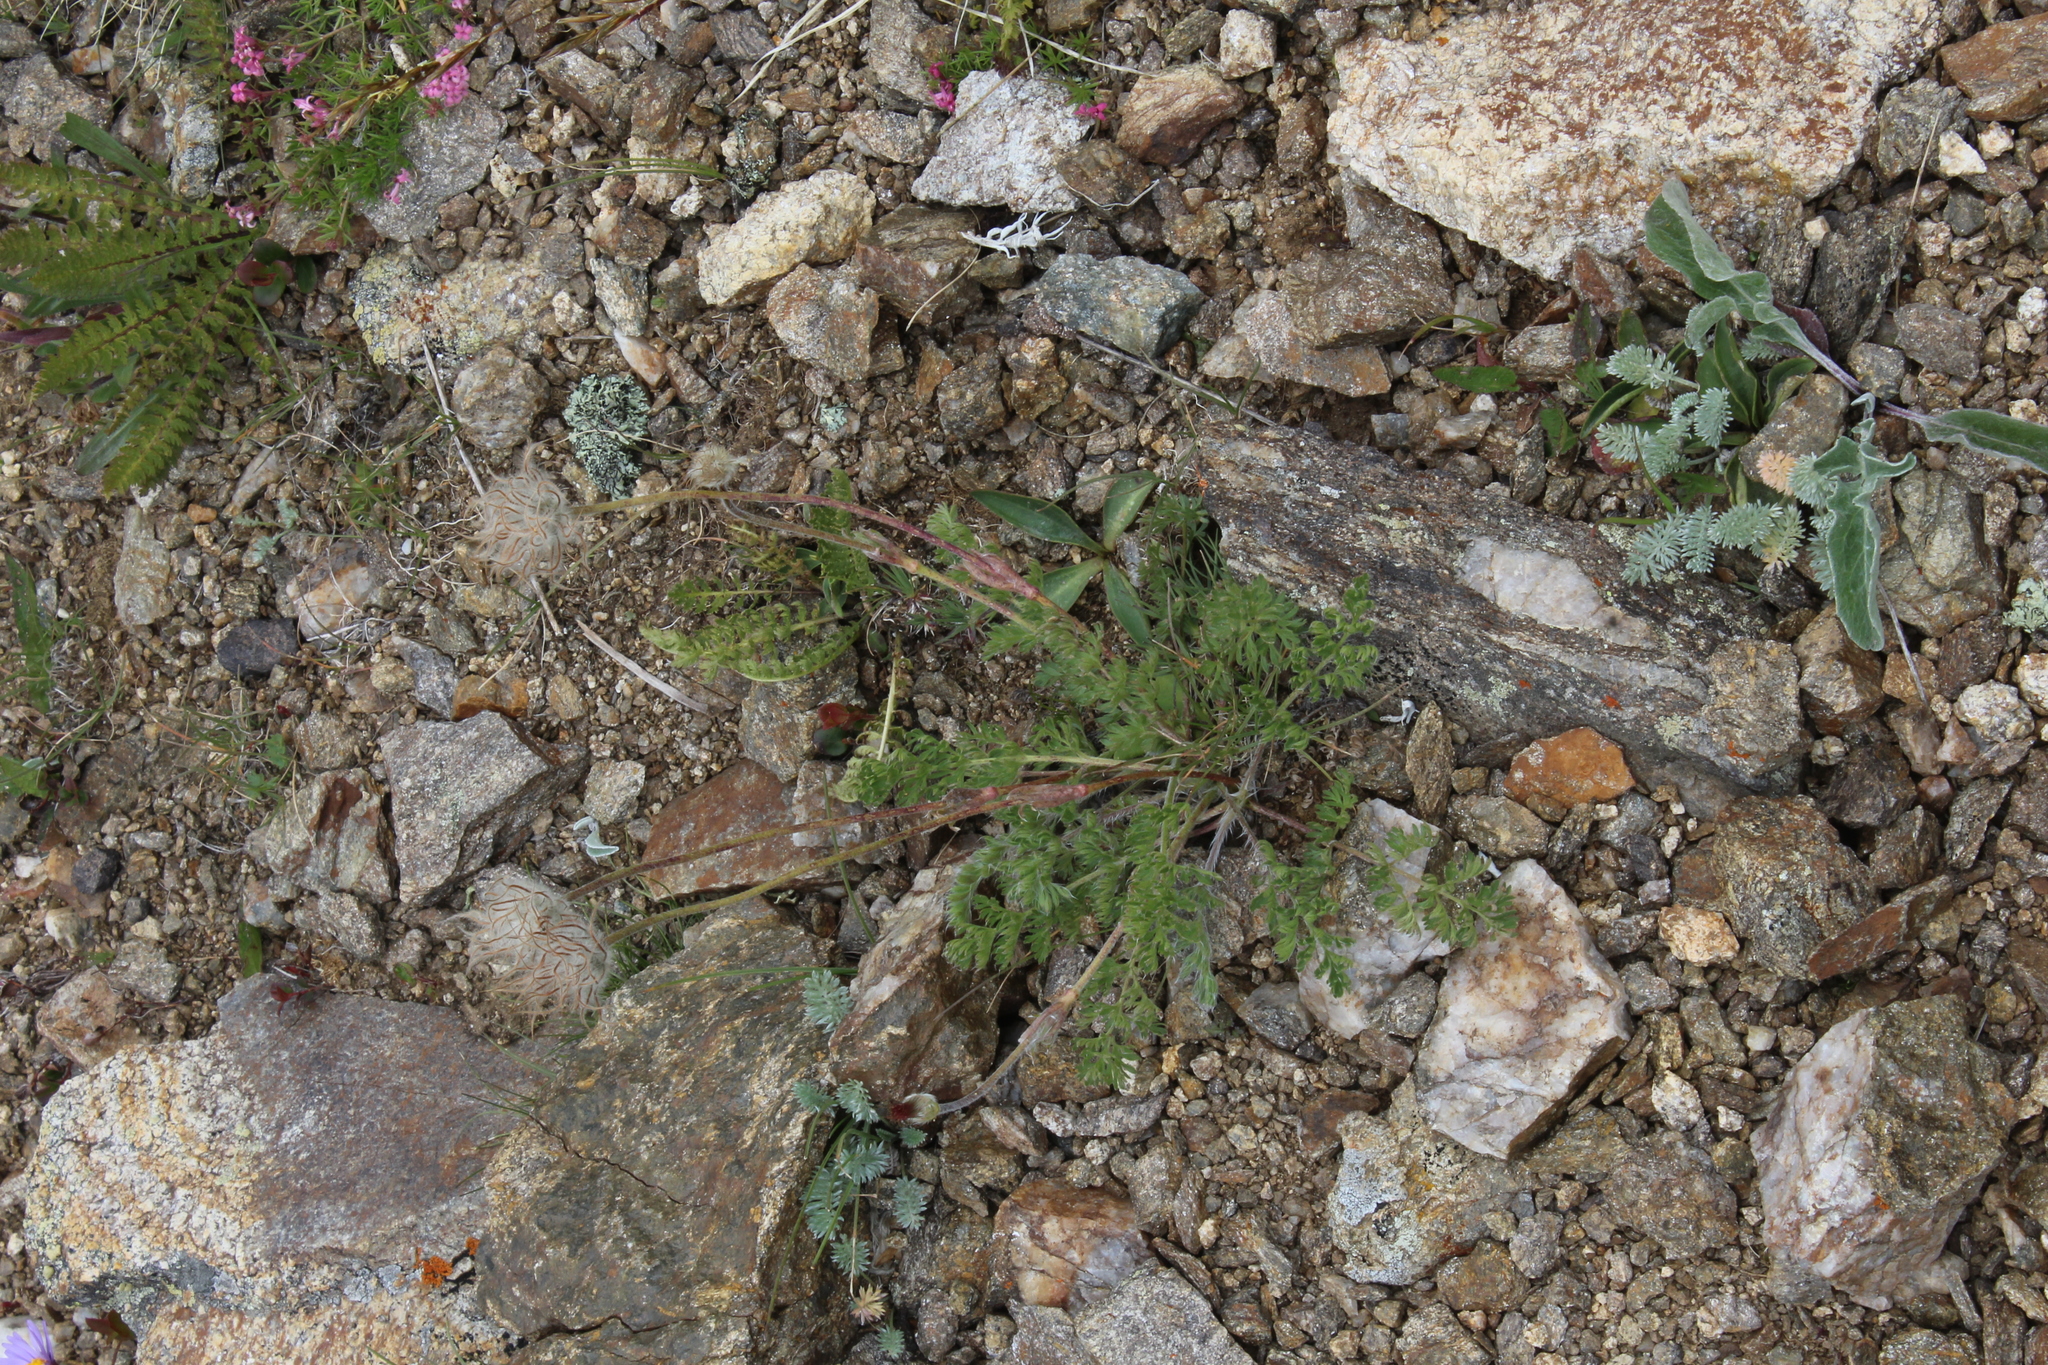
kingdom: Plantae
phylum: Tracheophyta
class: Magnoliopsida
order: Ranunculales
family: Ranunculaceae
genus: Pulsatilla
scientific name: Pulsatilla albana
